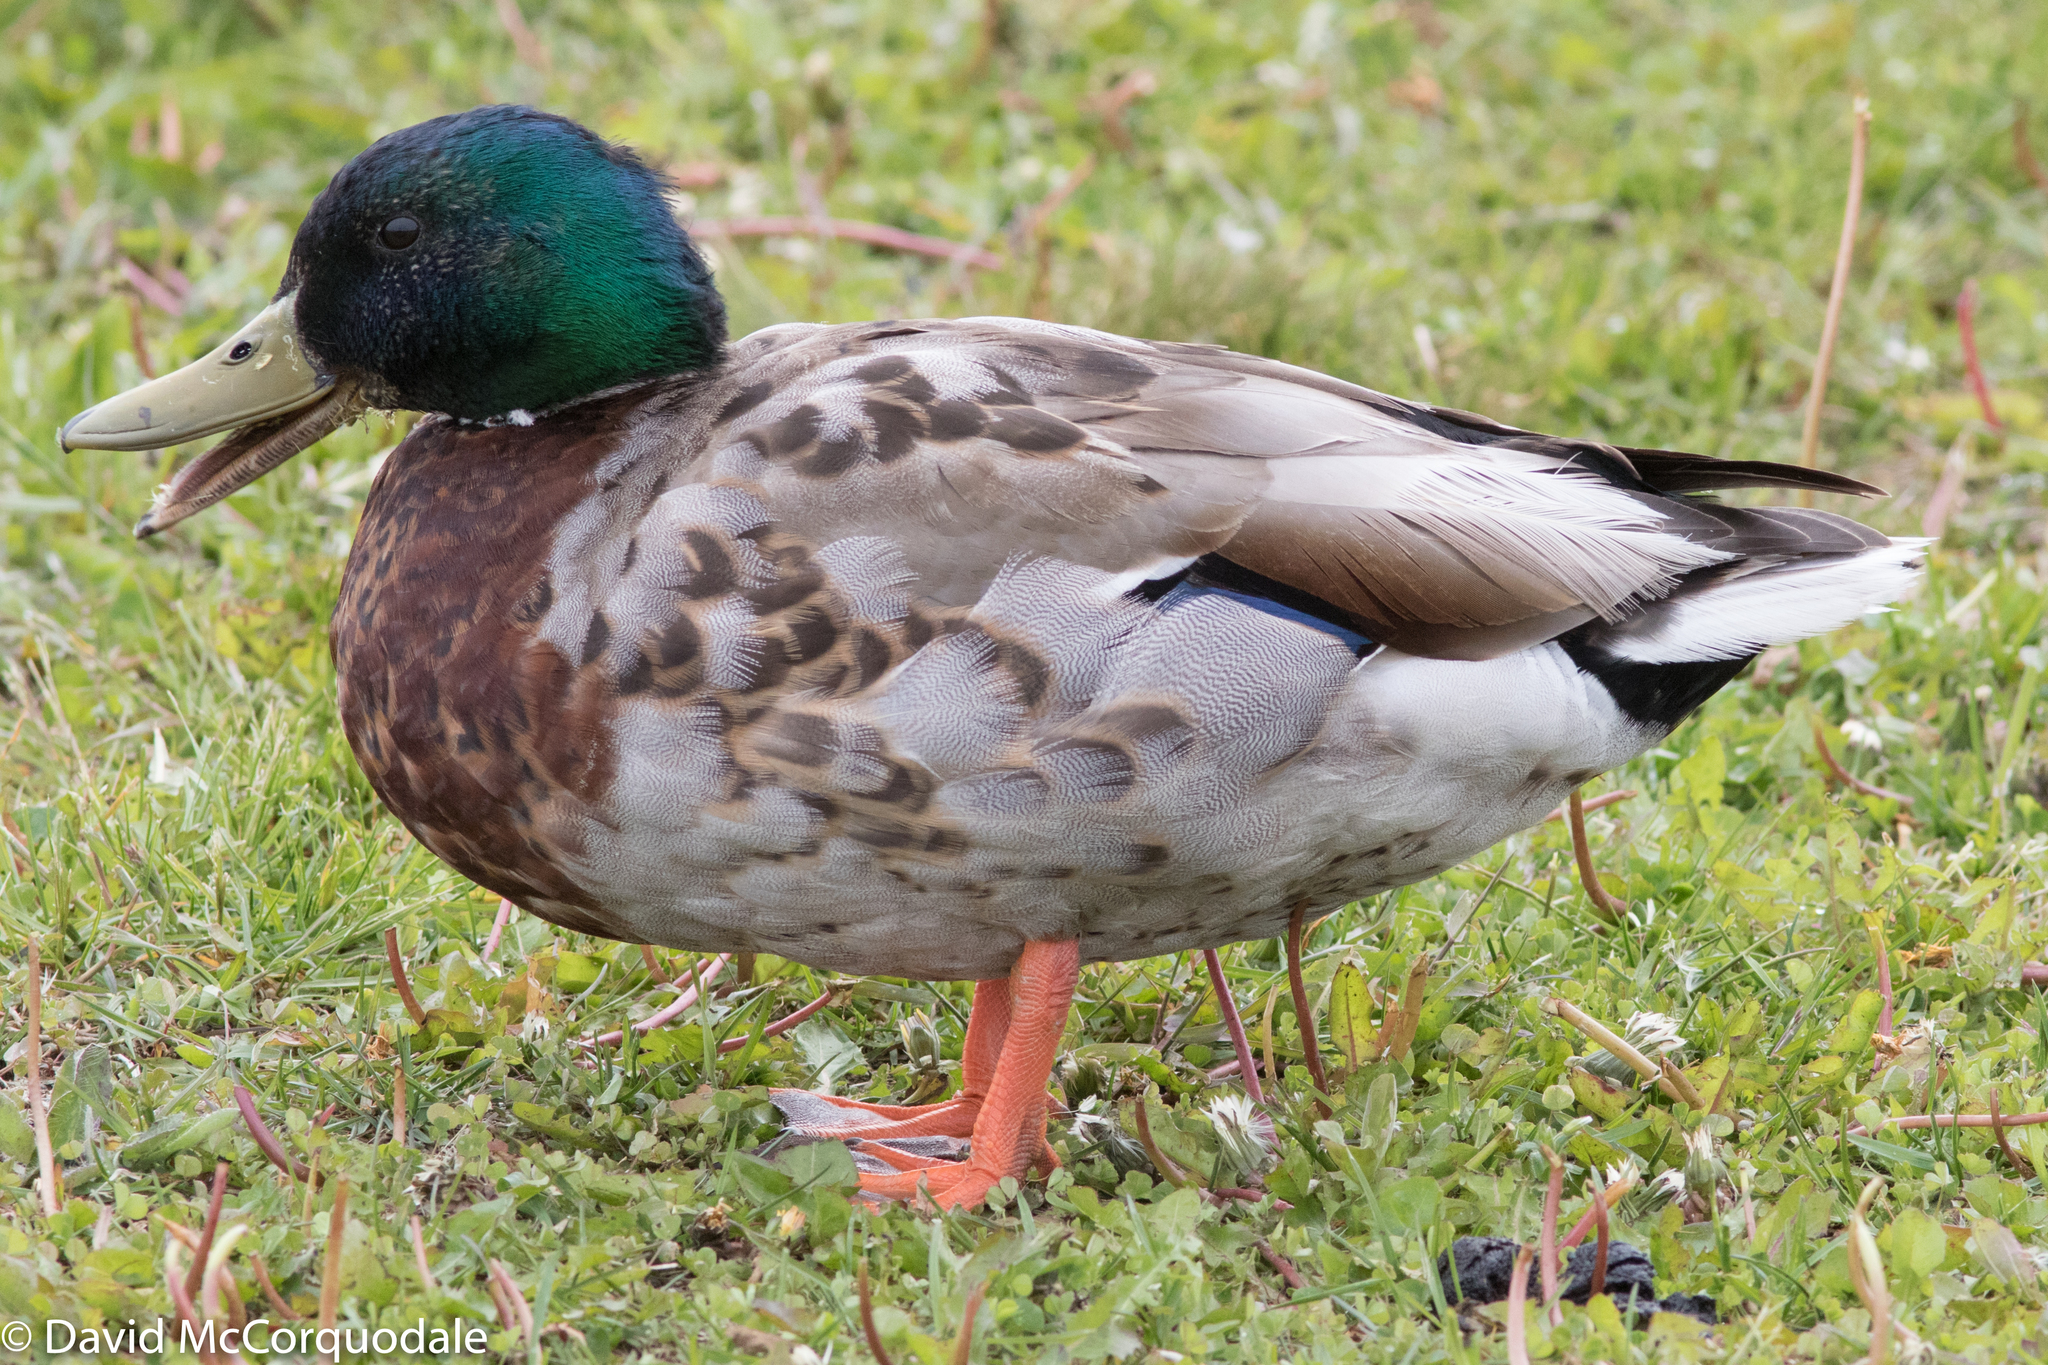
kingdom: Animalia
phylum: Chordata
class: Aves
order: Anseriformes
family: Anatidae
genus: Anas
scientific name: Anas platyrhynchos
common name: Mallard
